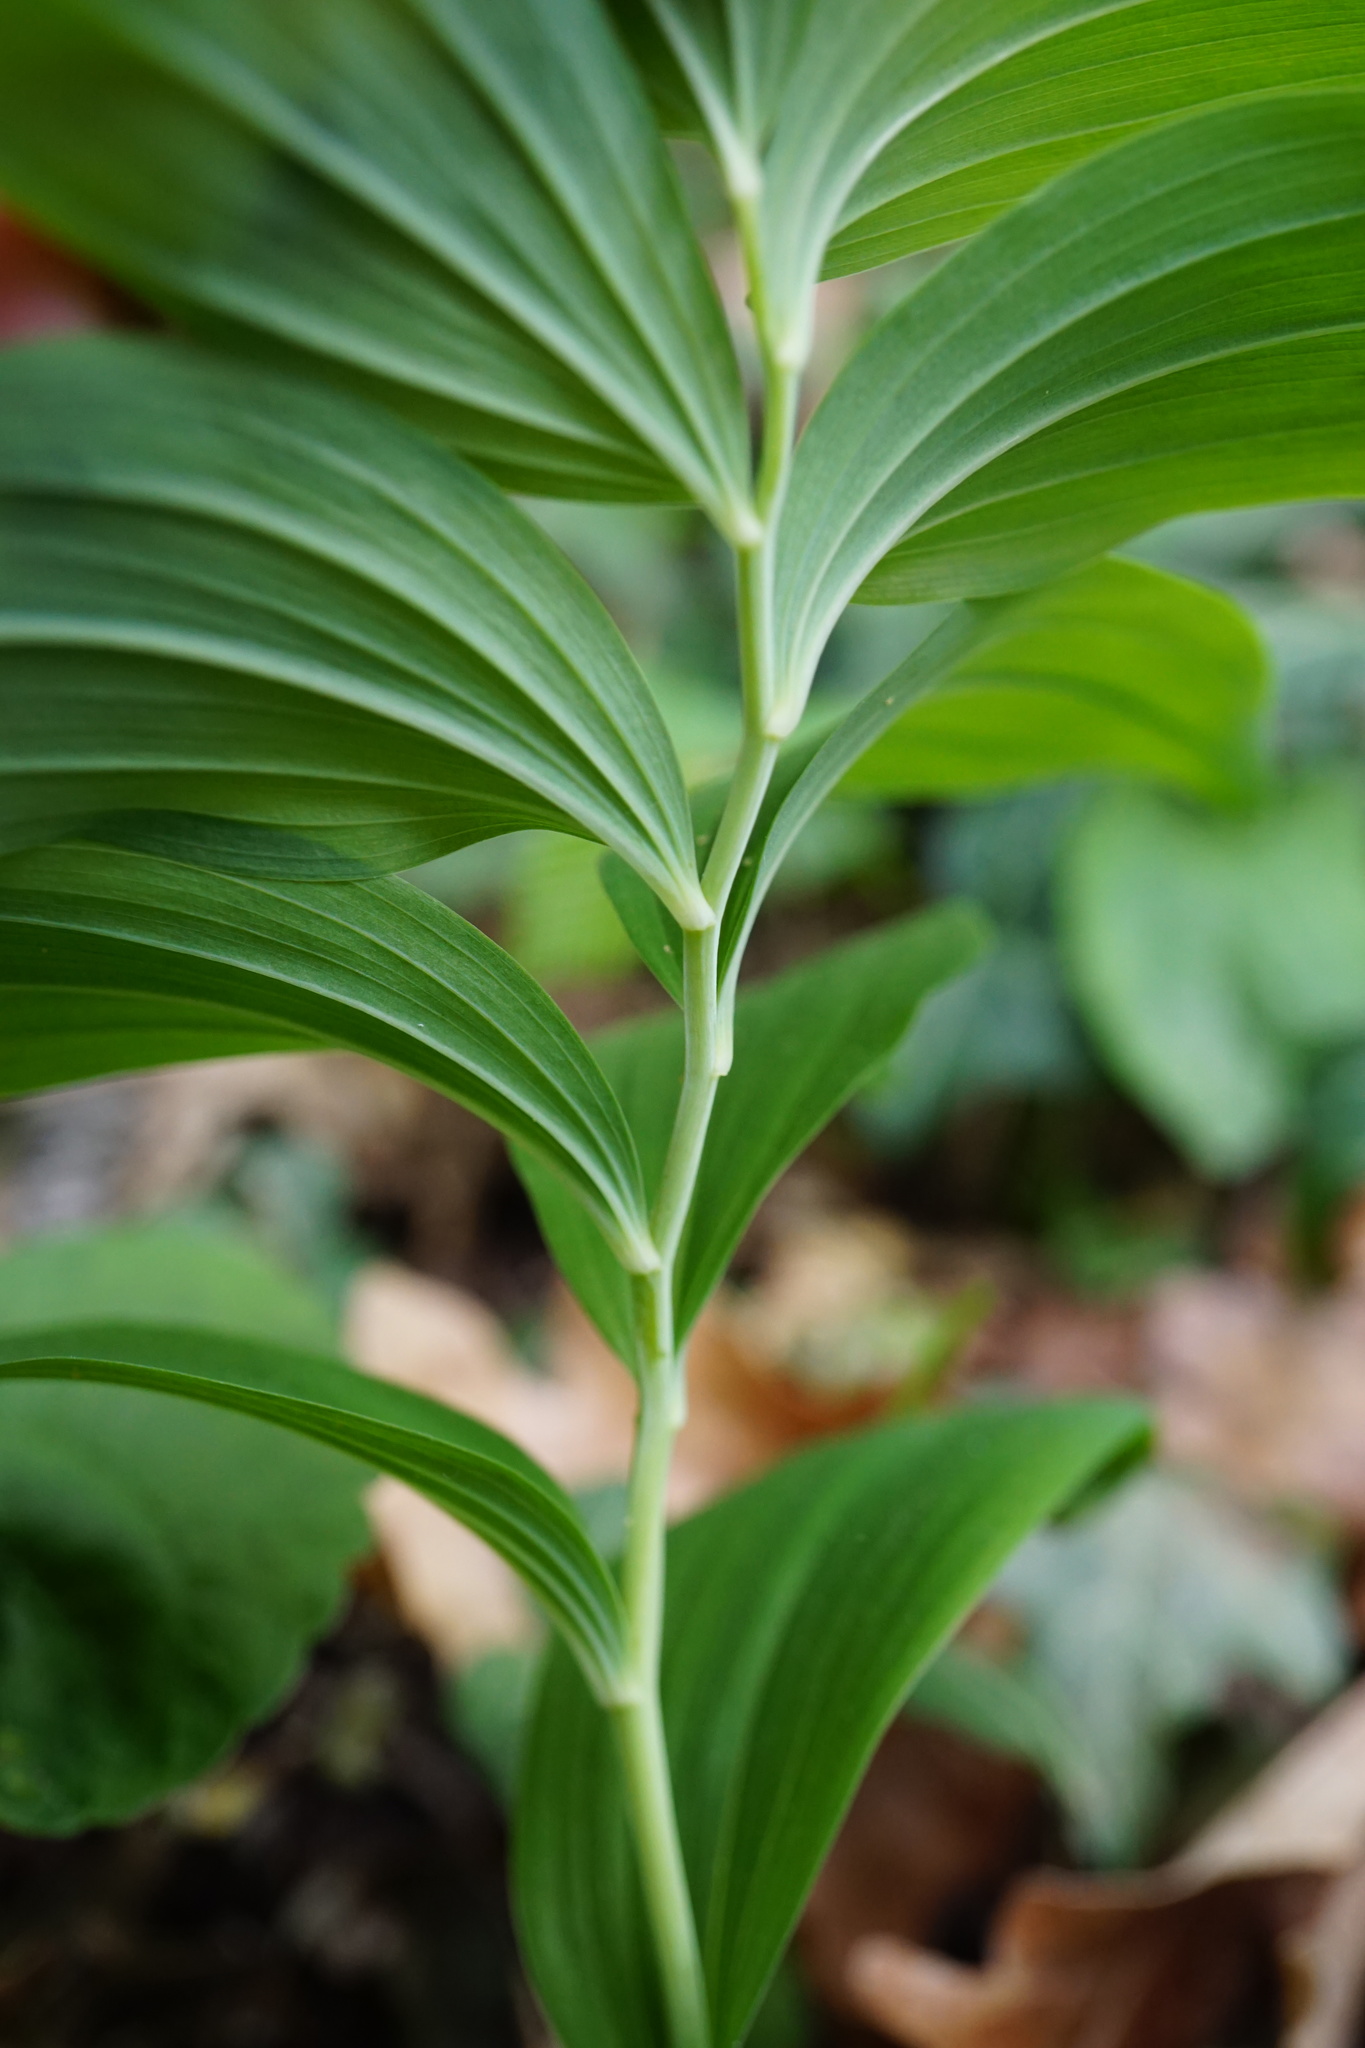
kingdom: Plantae
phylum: Tracheophyta
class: Liliopsida
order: Asparagales
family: Asparagaceae
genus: Polygonatum
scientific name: Polygonatum multiflorum
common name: Solomon's-seal
